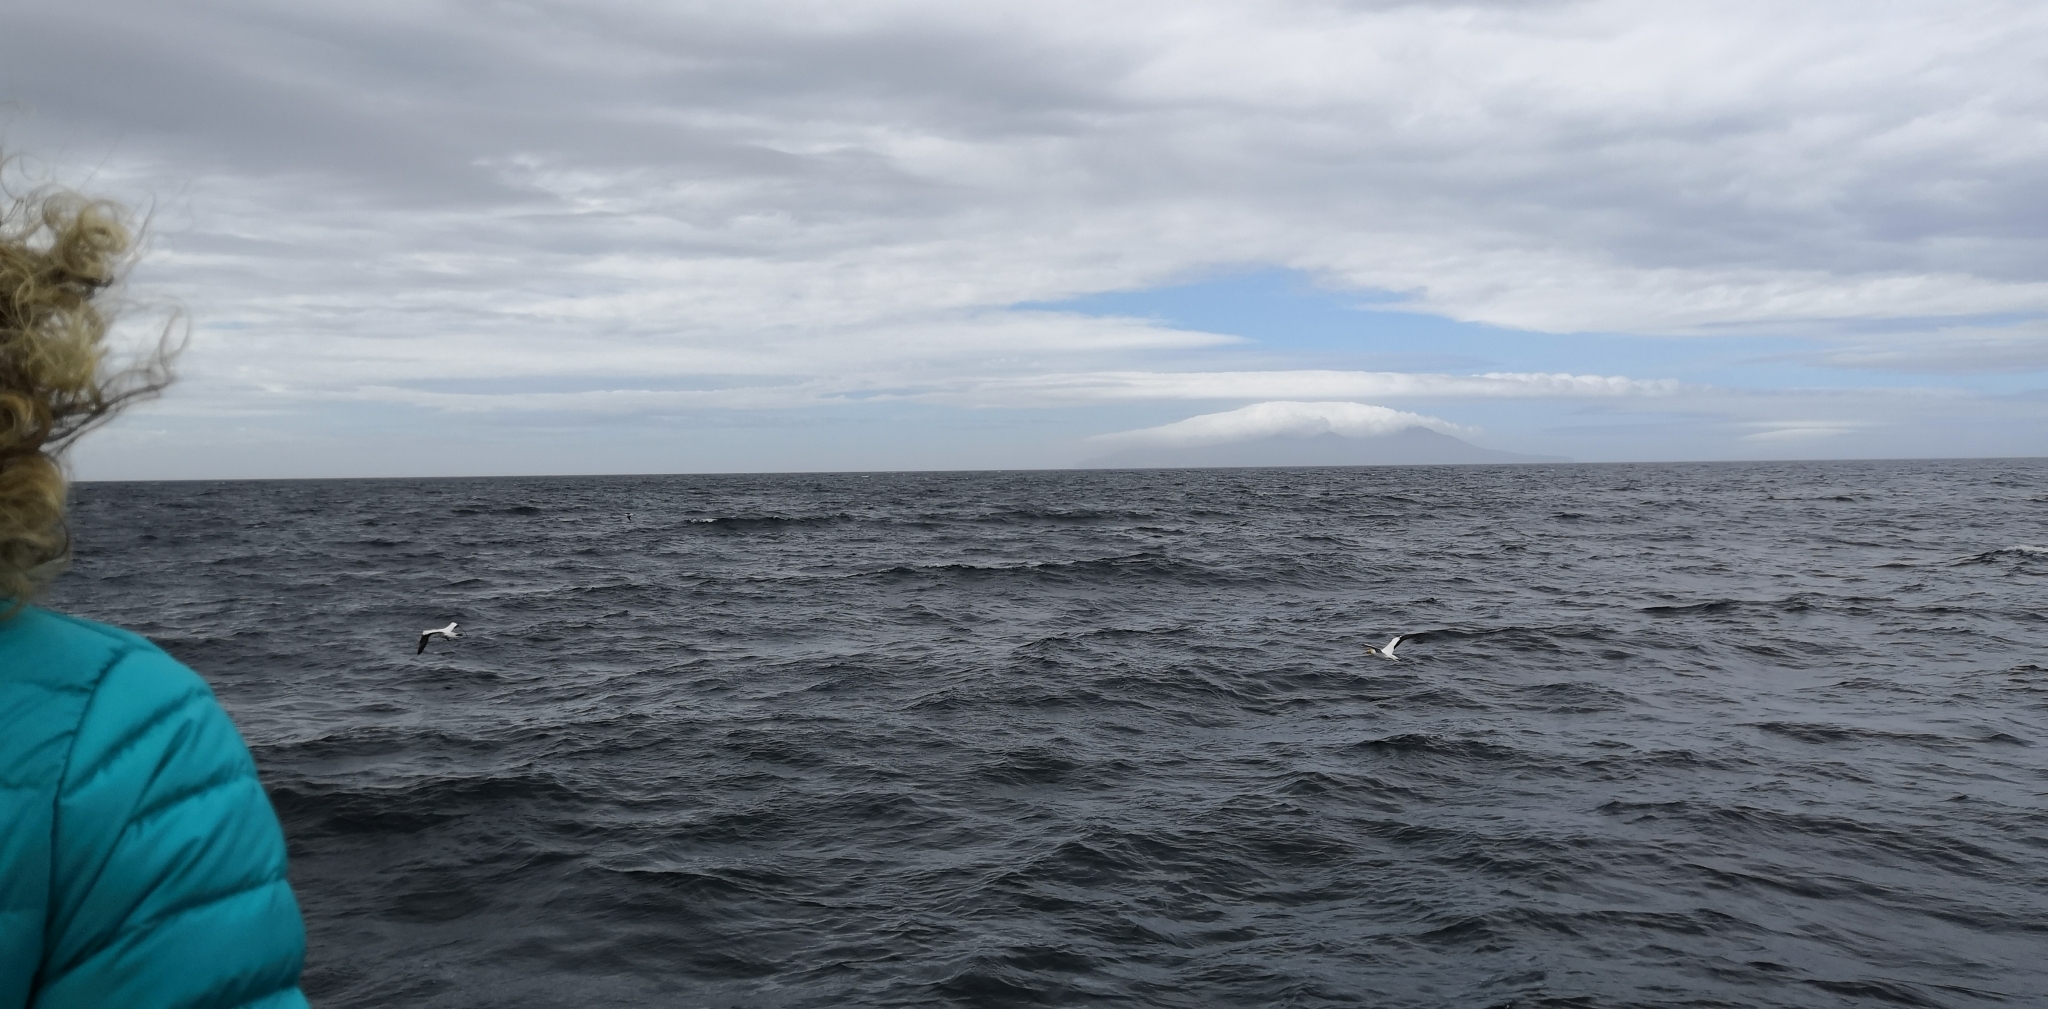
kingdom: Animalia
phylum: Chordata
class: Aves
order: Suliformes
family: Sulidae
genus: Morus
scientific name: Morus serrator
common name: Australasian gannet
